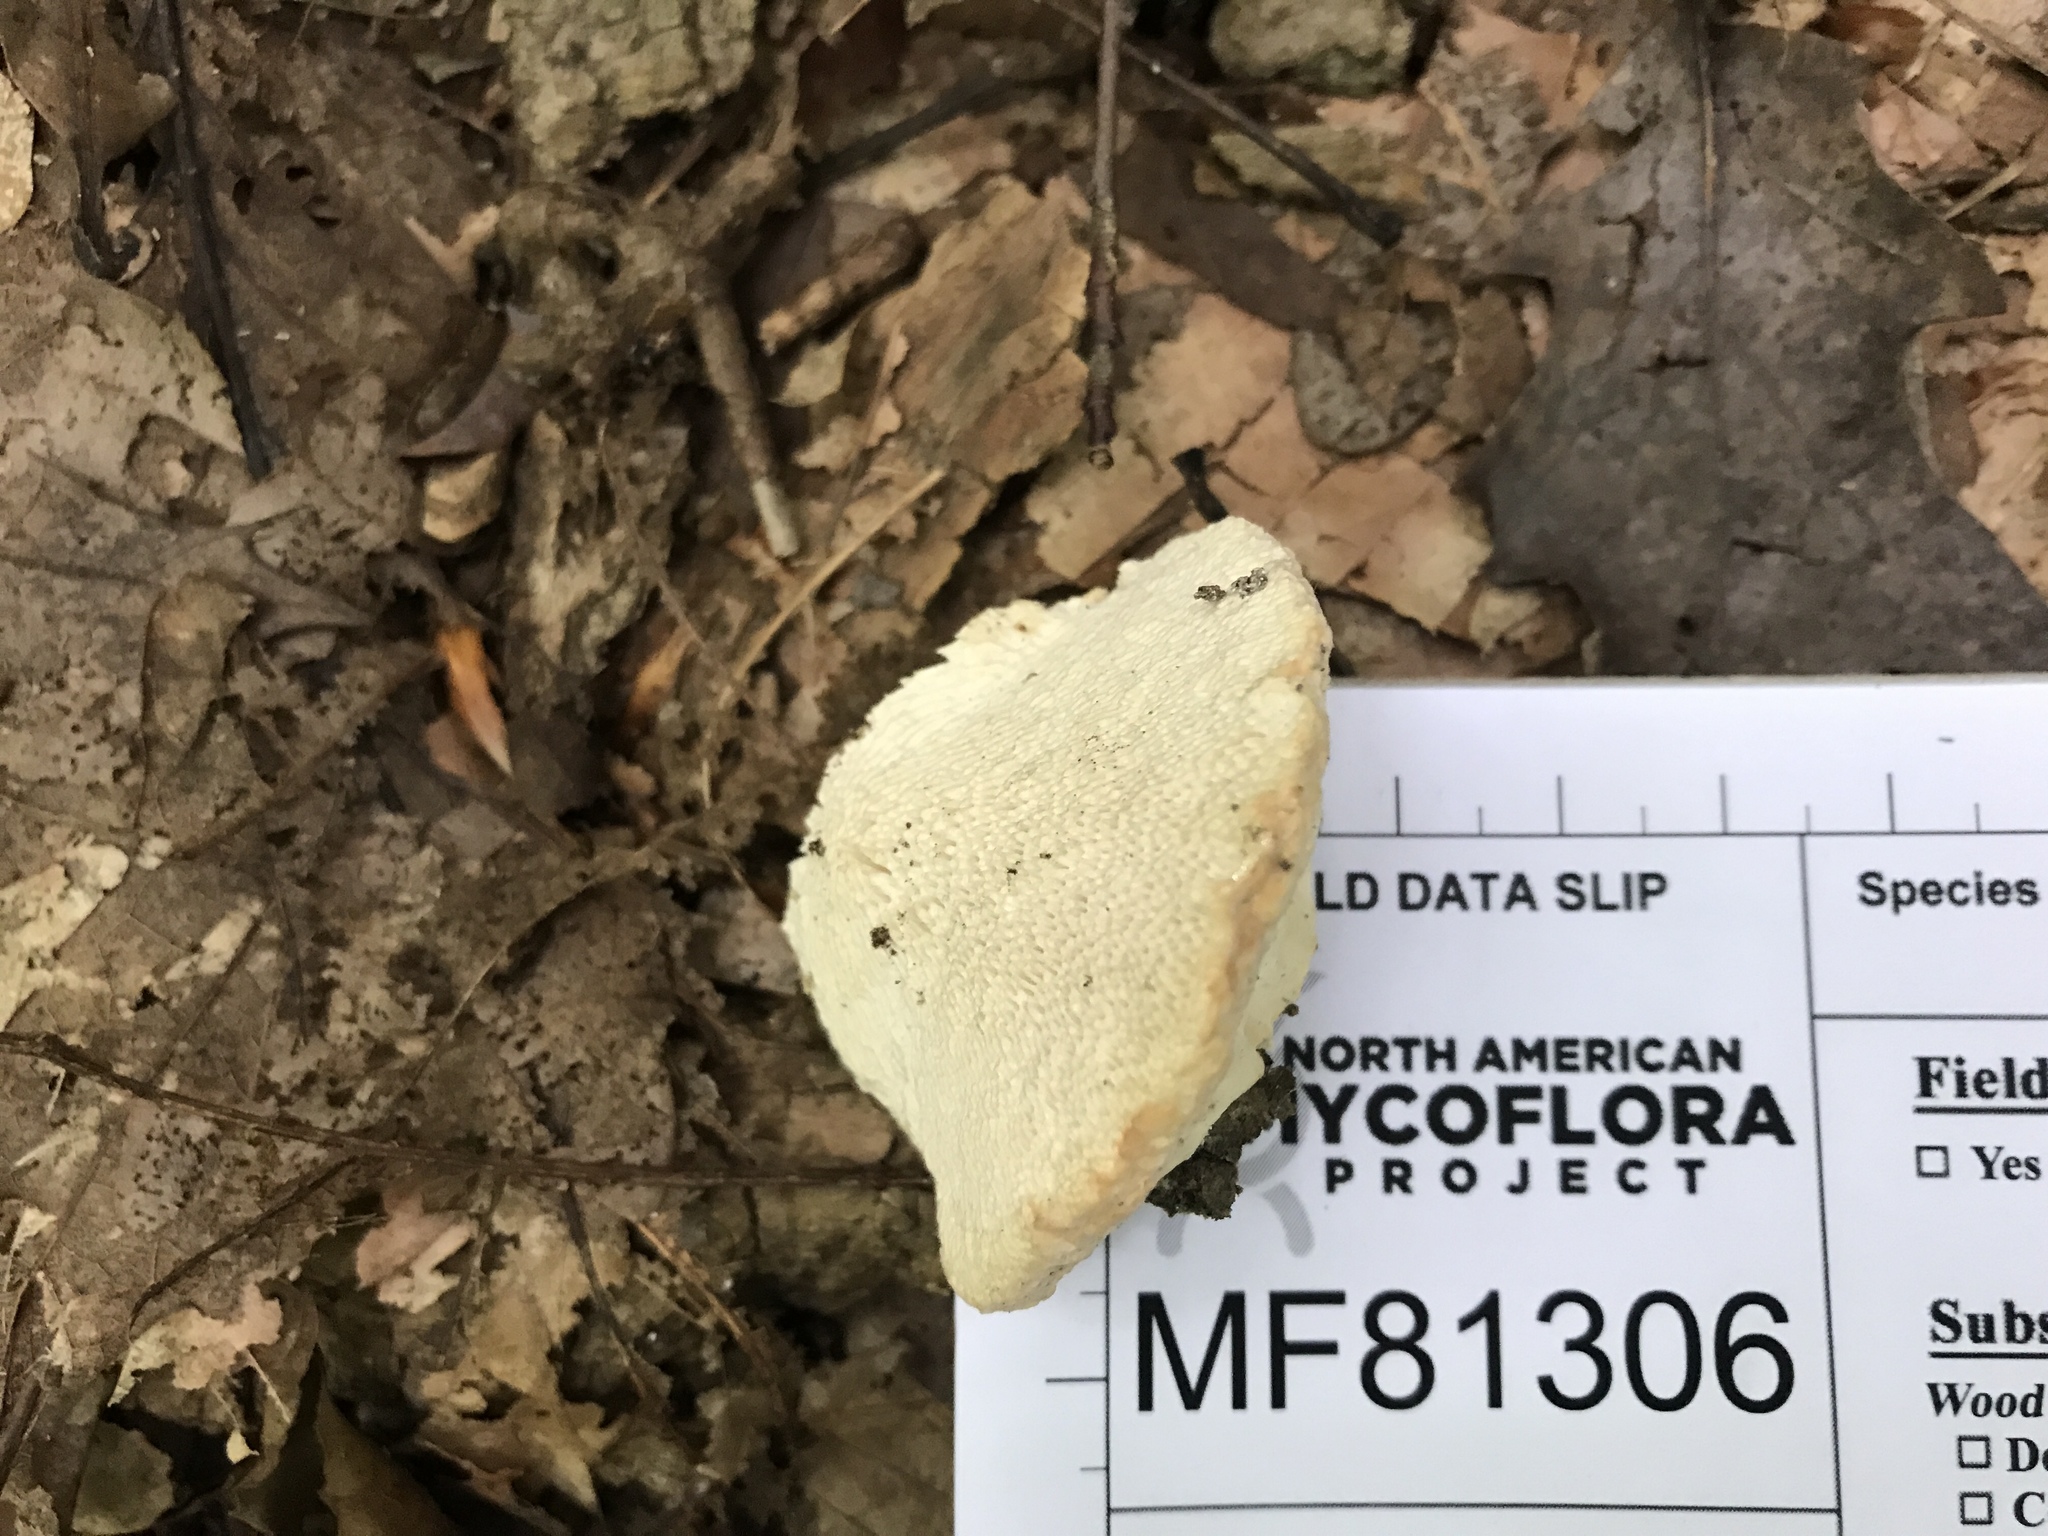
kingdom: Fungi
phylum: Basidiomycota
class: Agaricomycetes
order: Polyporales
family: Polyporaceae
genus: Trametes
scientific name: Trametes gibbosa
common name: Lumpy bracket
